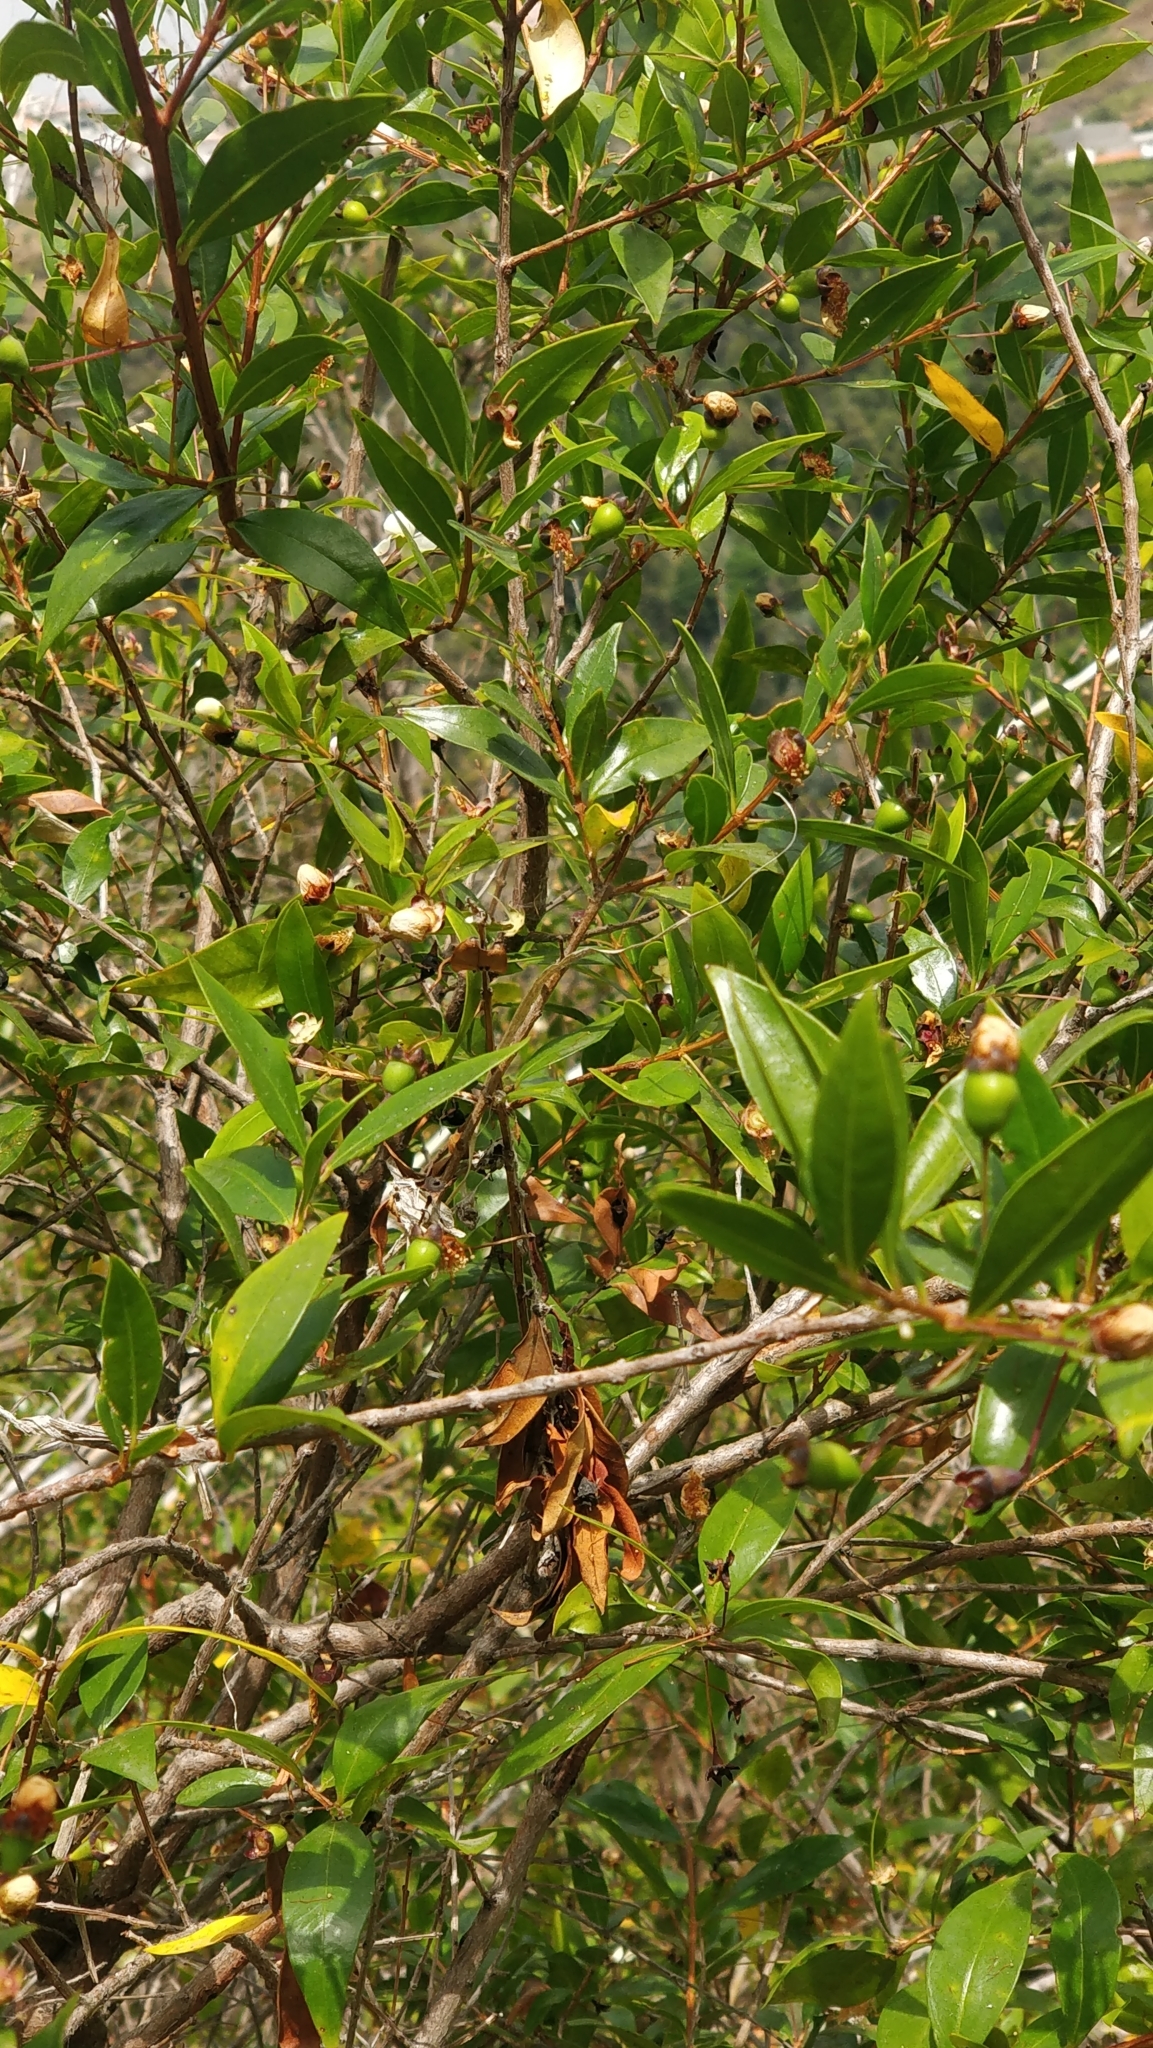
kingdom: Plantae
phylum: Tracheophyta
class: Magnoliopsida
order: Myrtales
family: Myrtaceae
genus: Myrtus
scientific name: Myrtus communis
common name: Myrtle
